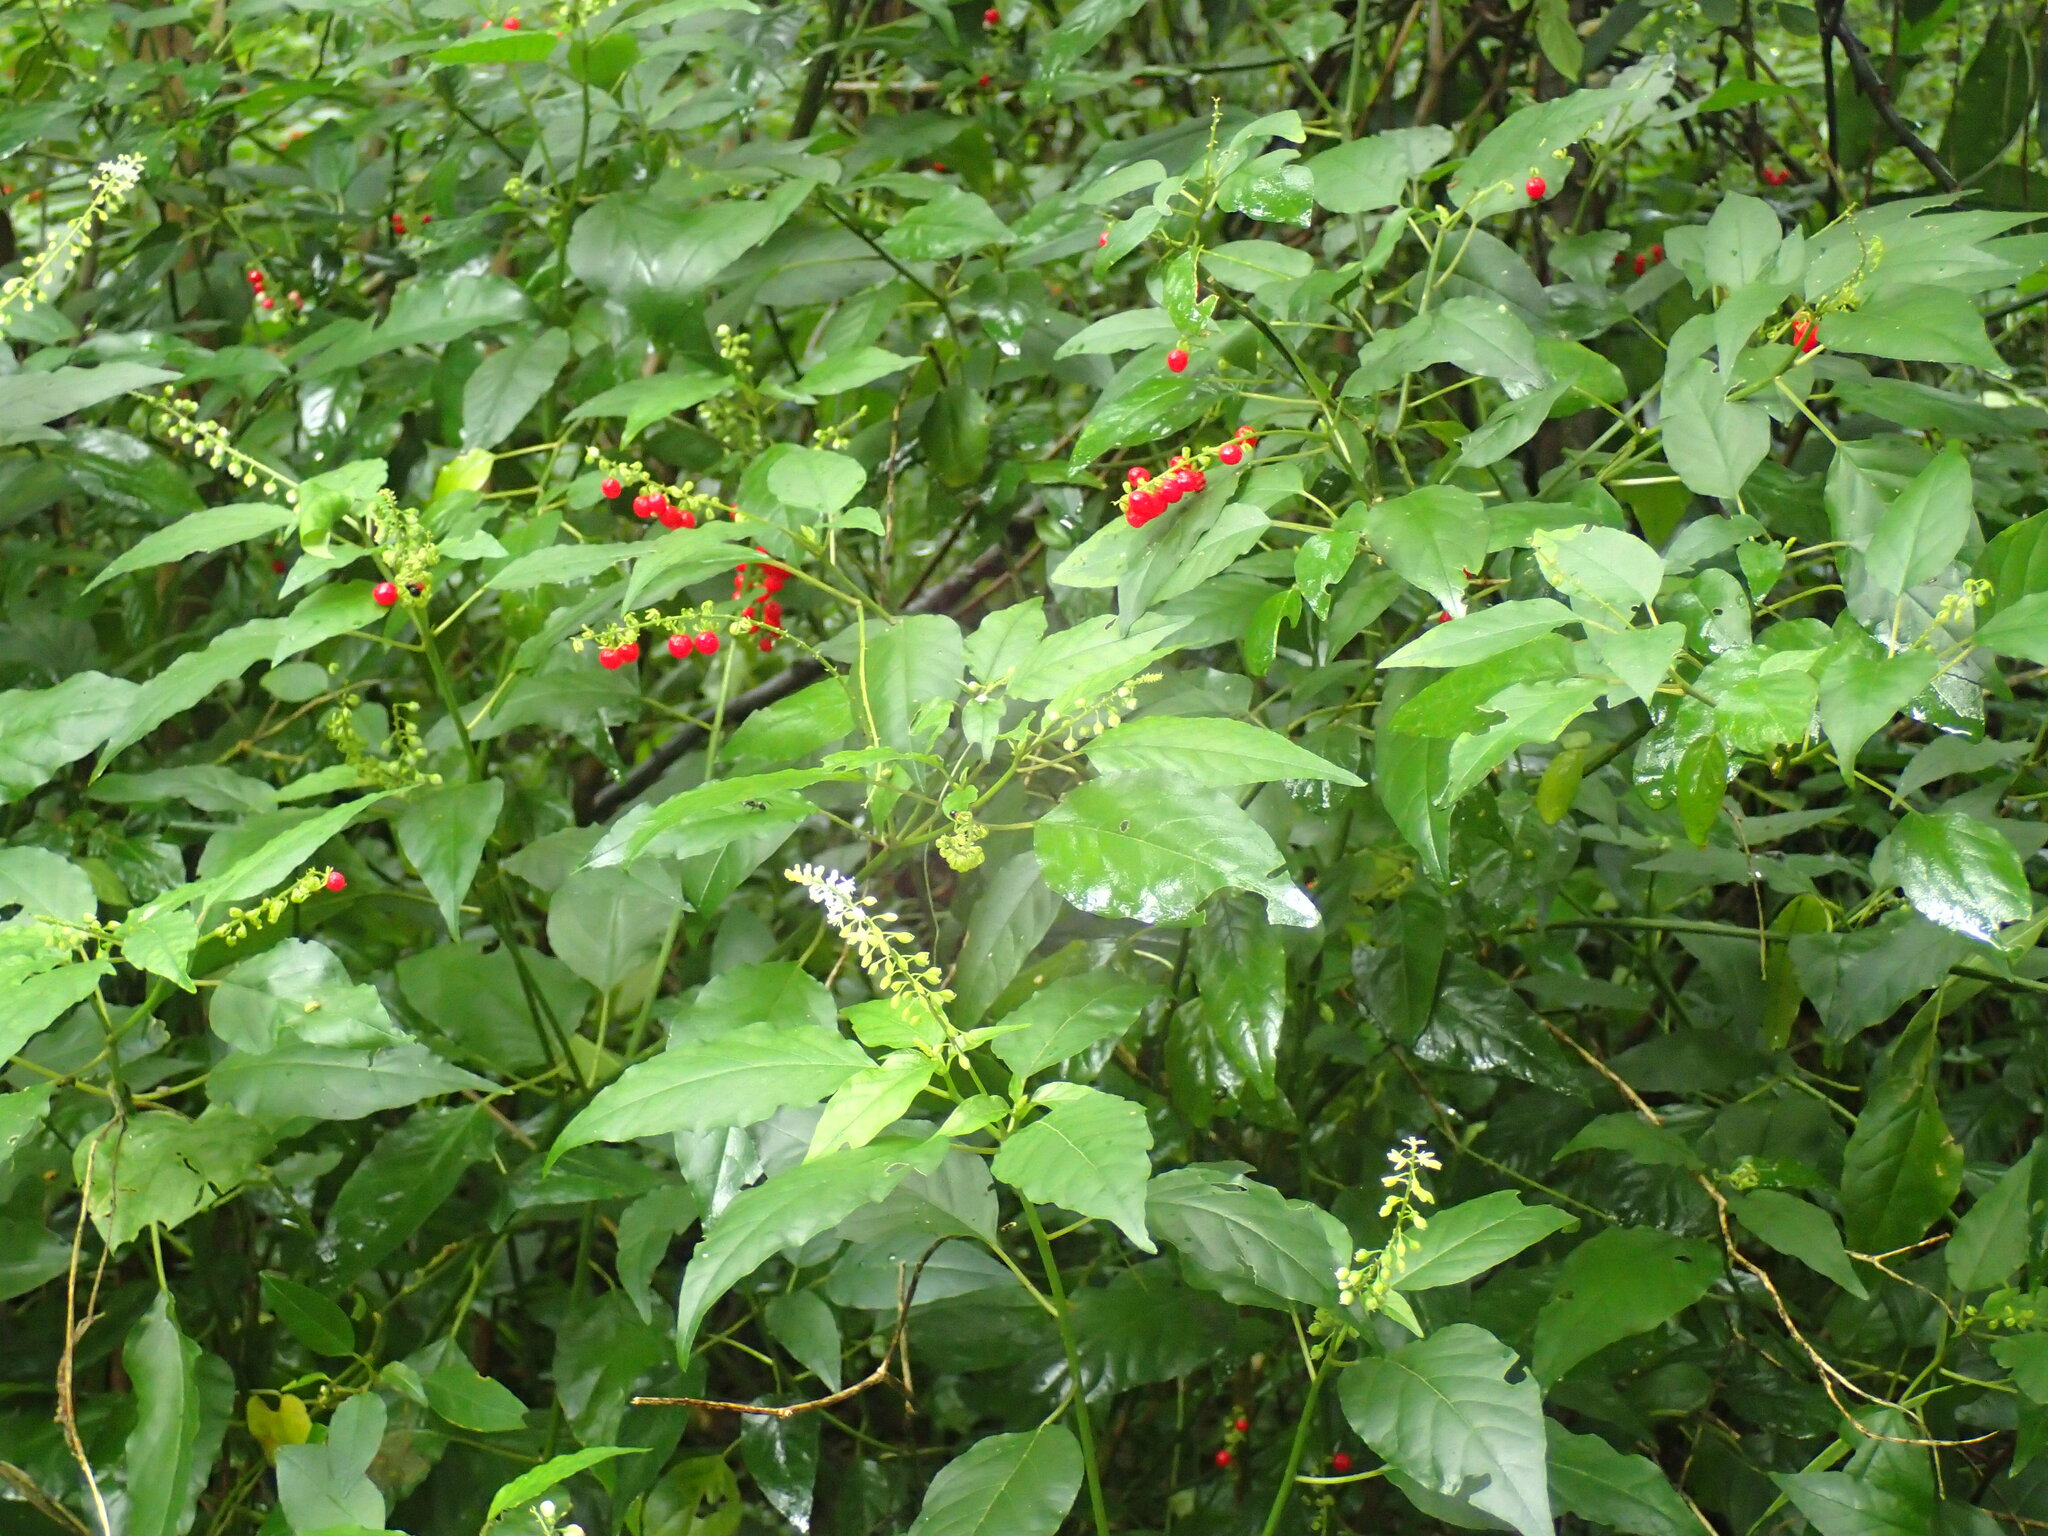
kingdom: Plantae
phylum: Tracheophyta
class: Magnoliopsida
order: Caryophyllales
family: Phytolaccaceae
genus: Rivina
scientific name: Rivina humilis
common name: Rougeplant
